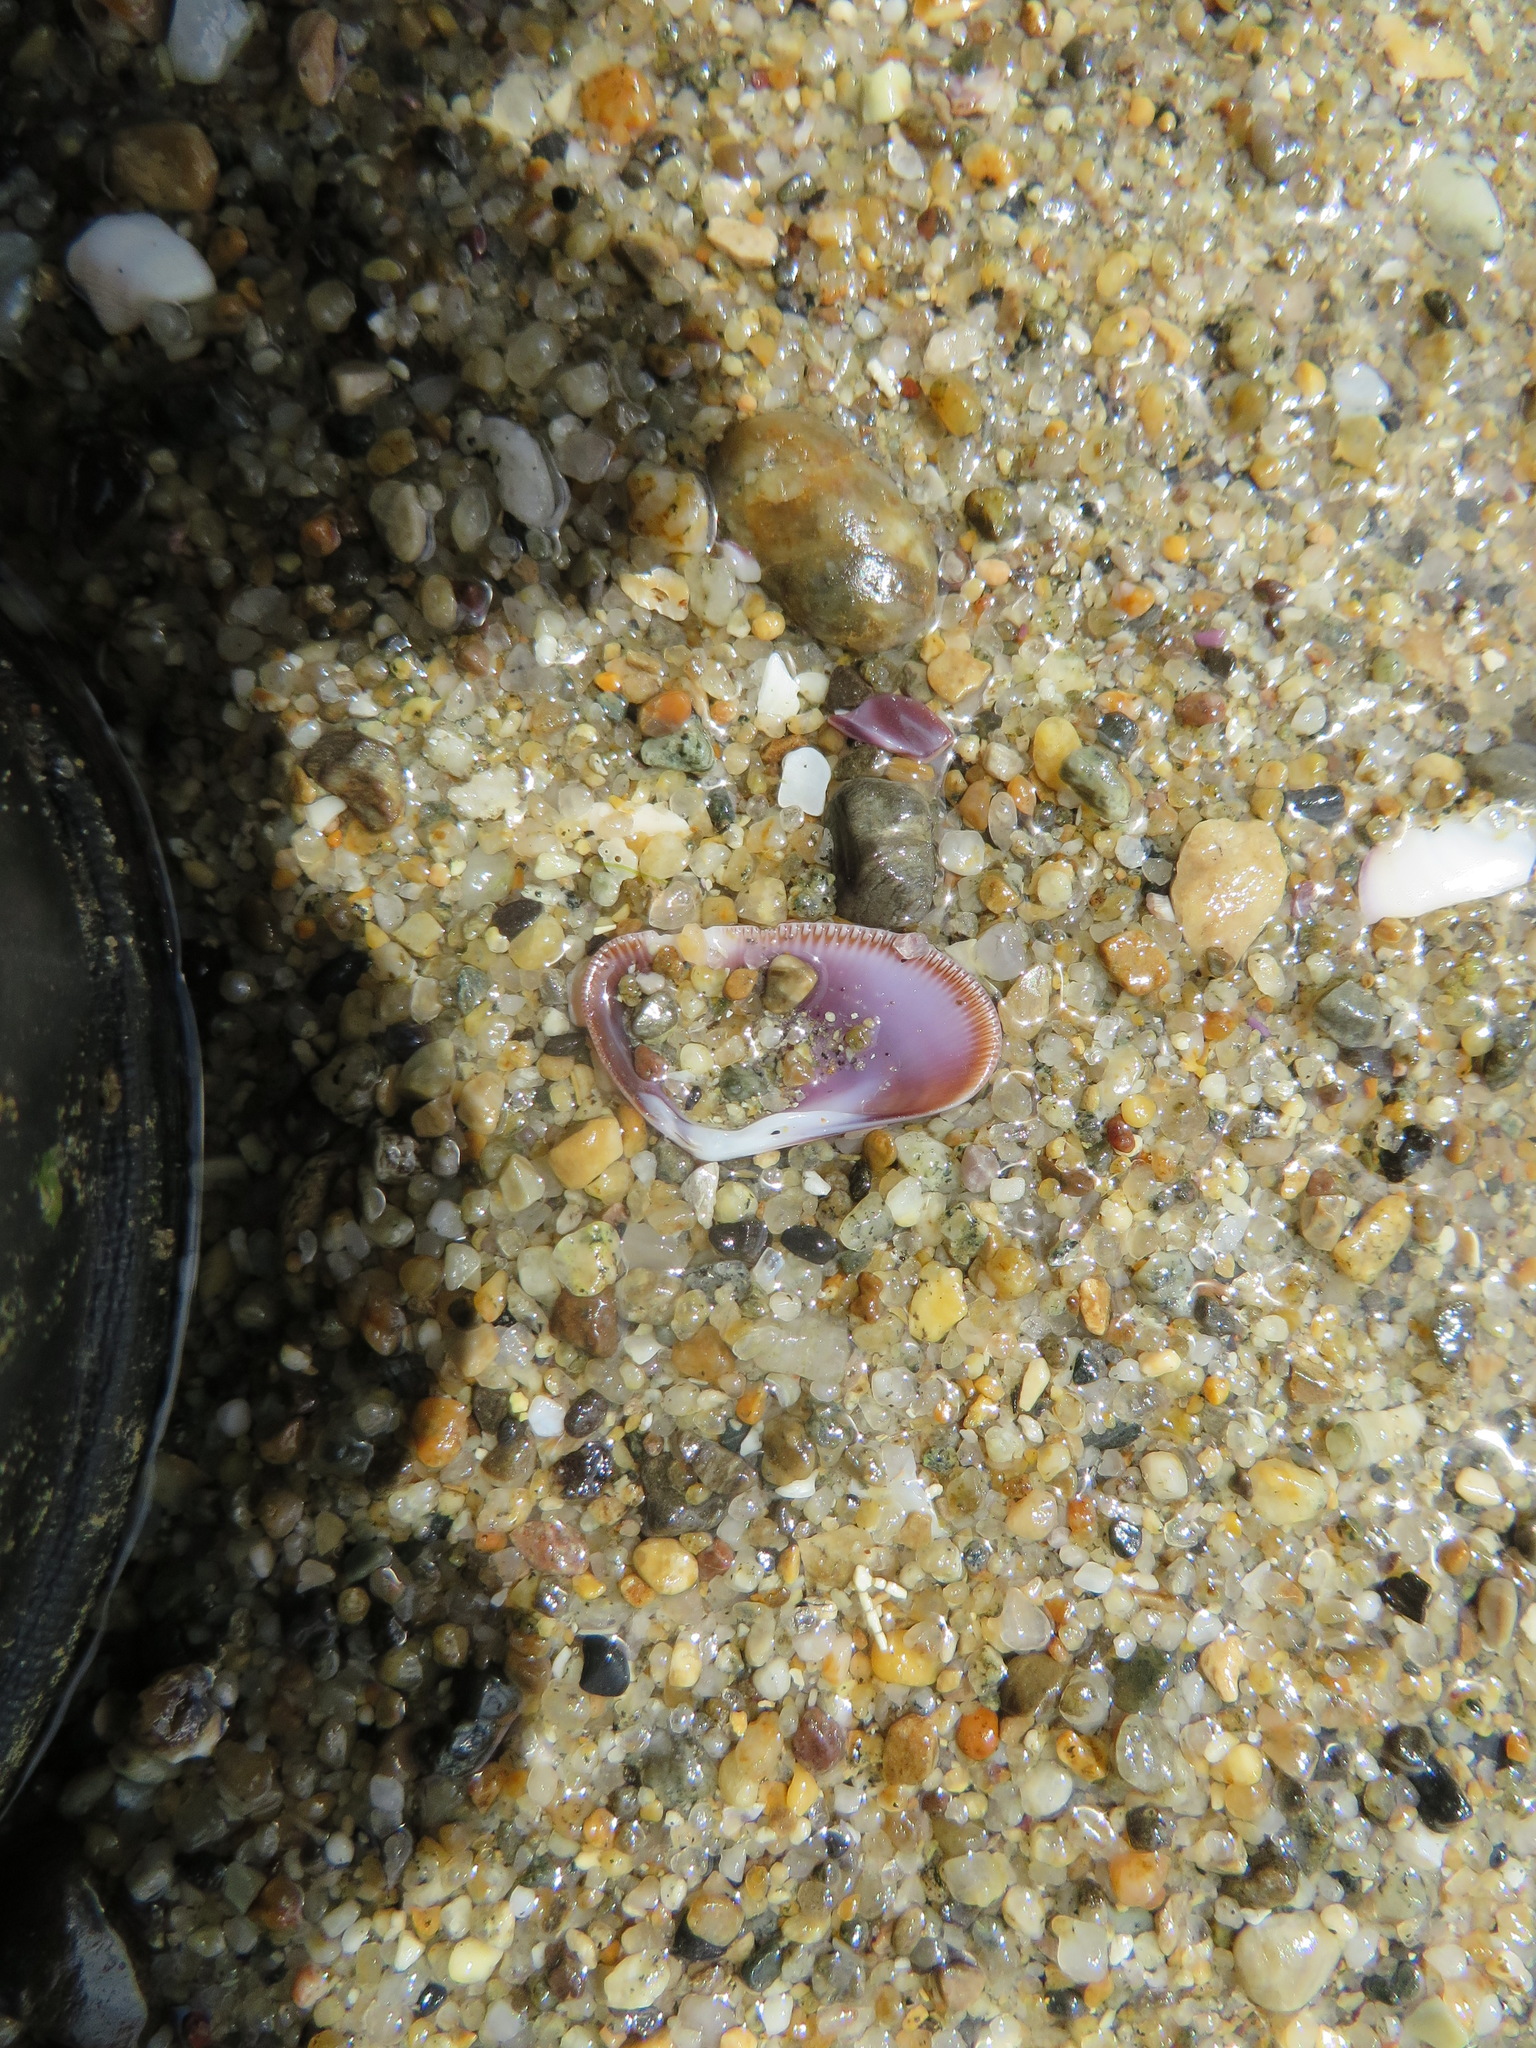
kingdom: Animalia
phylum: Mollusca
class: Bivalvia
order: Cardiida
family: Donacidae
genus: Donax
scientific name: Donax gouldii
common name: Gould beanclam
